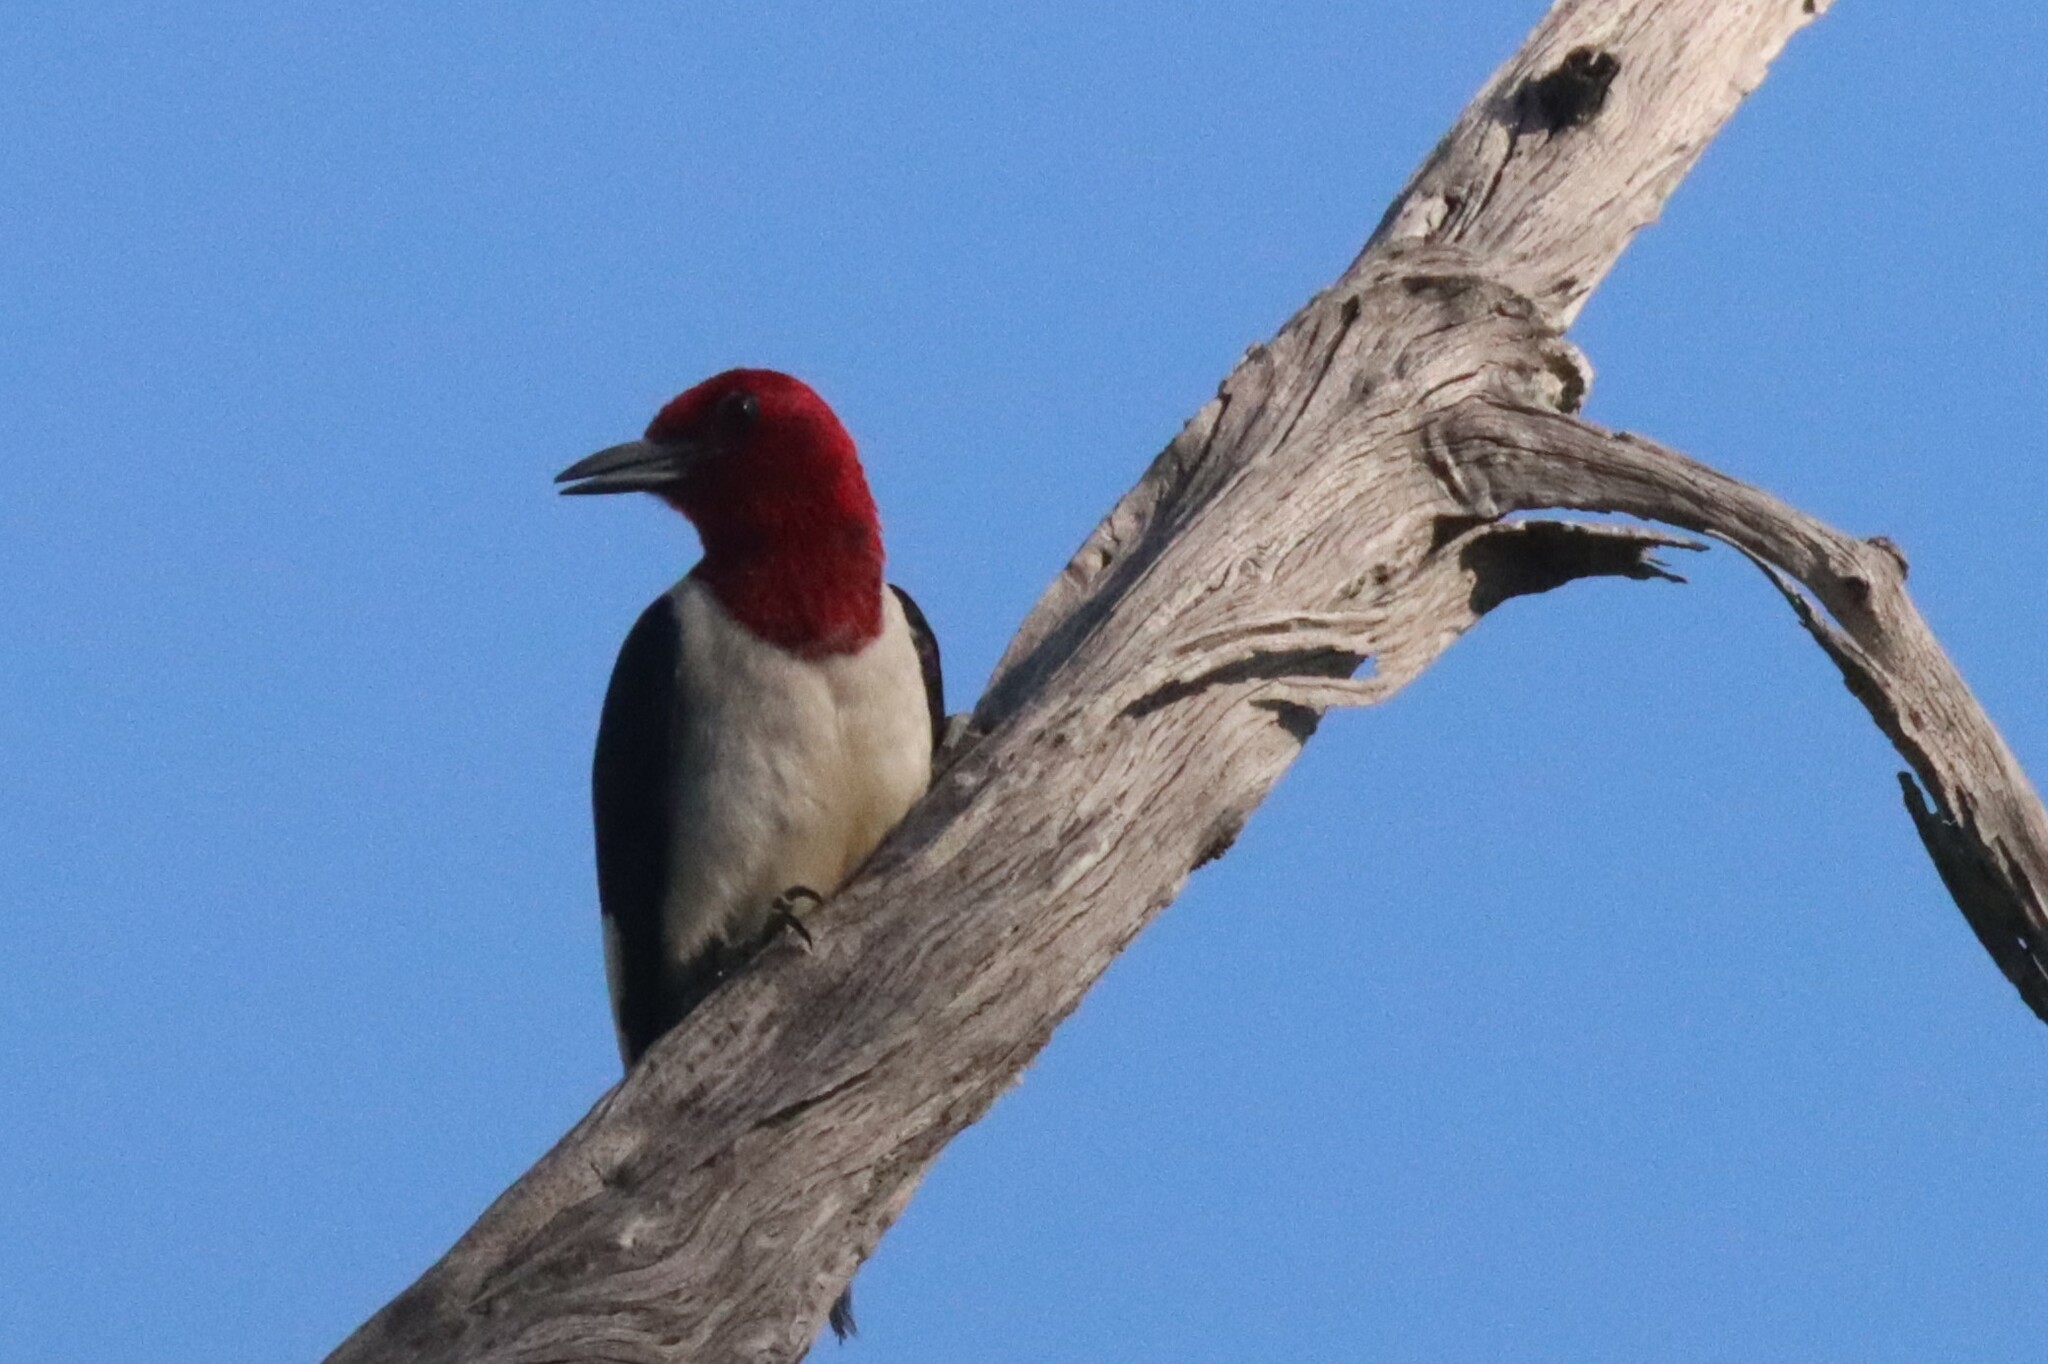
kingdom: Animalia
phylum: Chordata
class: Aves
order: Piciformes
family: Picidae
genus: Melanerpes
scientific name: Melanerpes erythrocephalus
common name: Red-headed woodpecker
